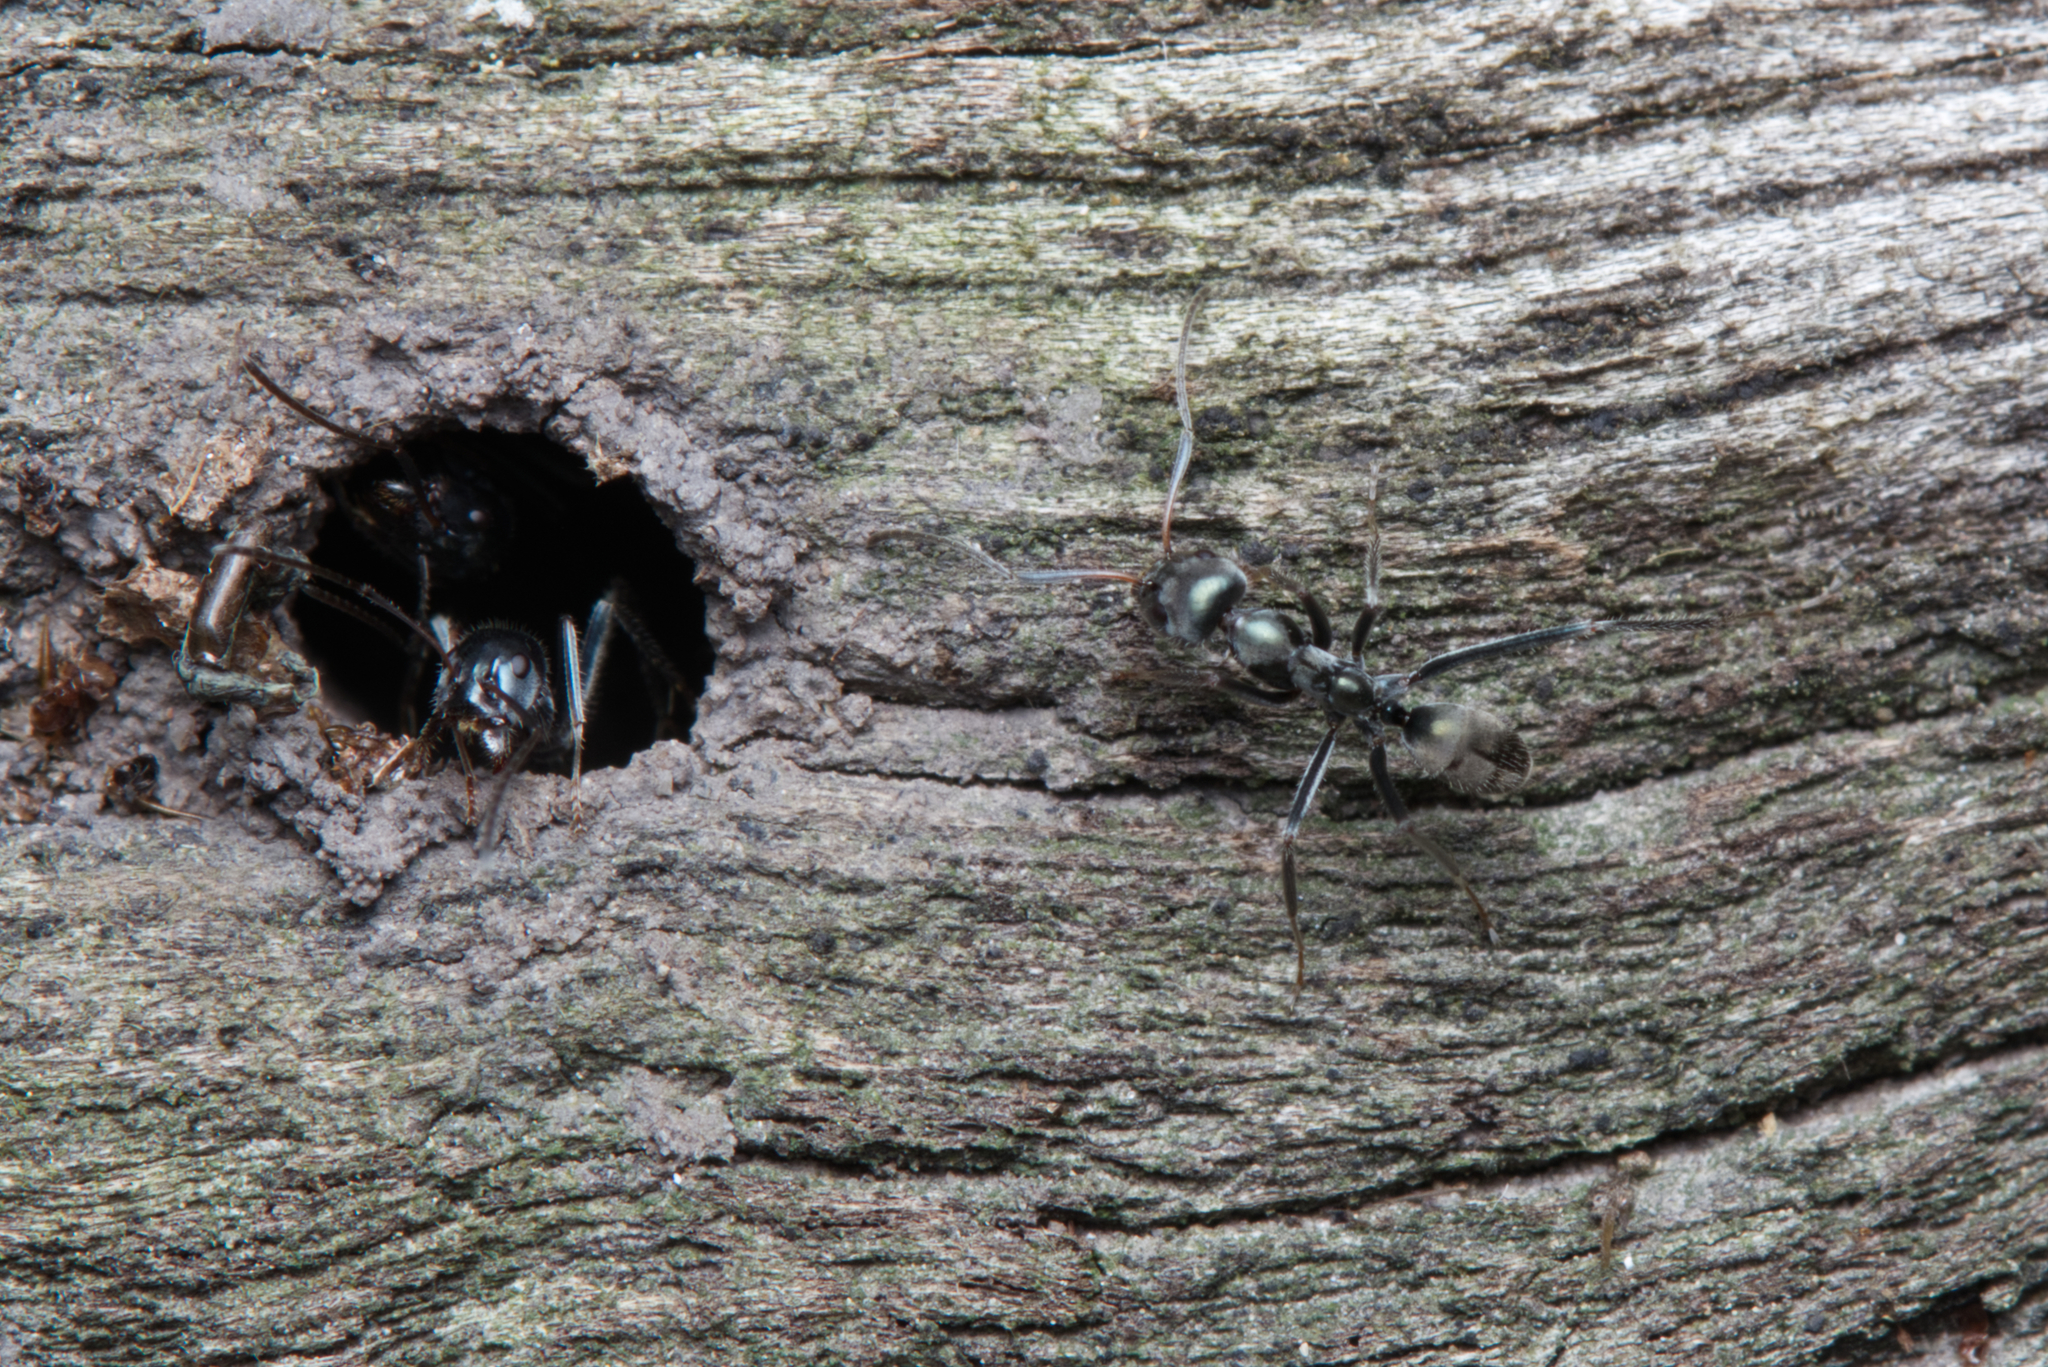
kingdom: Animalia
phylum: Arthropoda
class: Insecta
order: Hymenoptera
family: Formicidae
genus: Iridomyrmex
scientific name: Iridomyrmex
